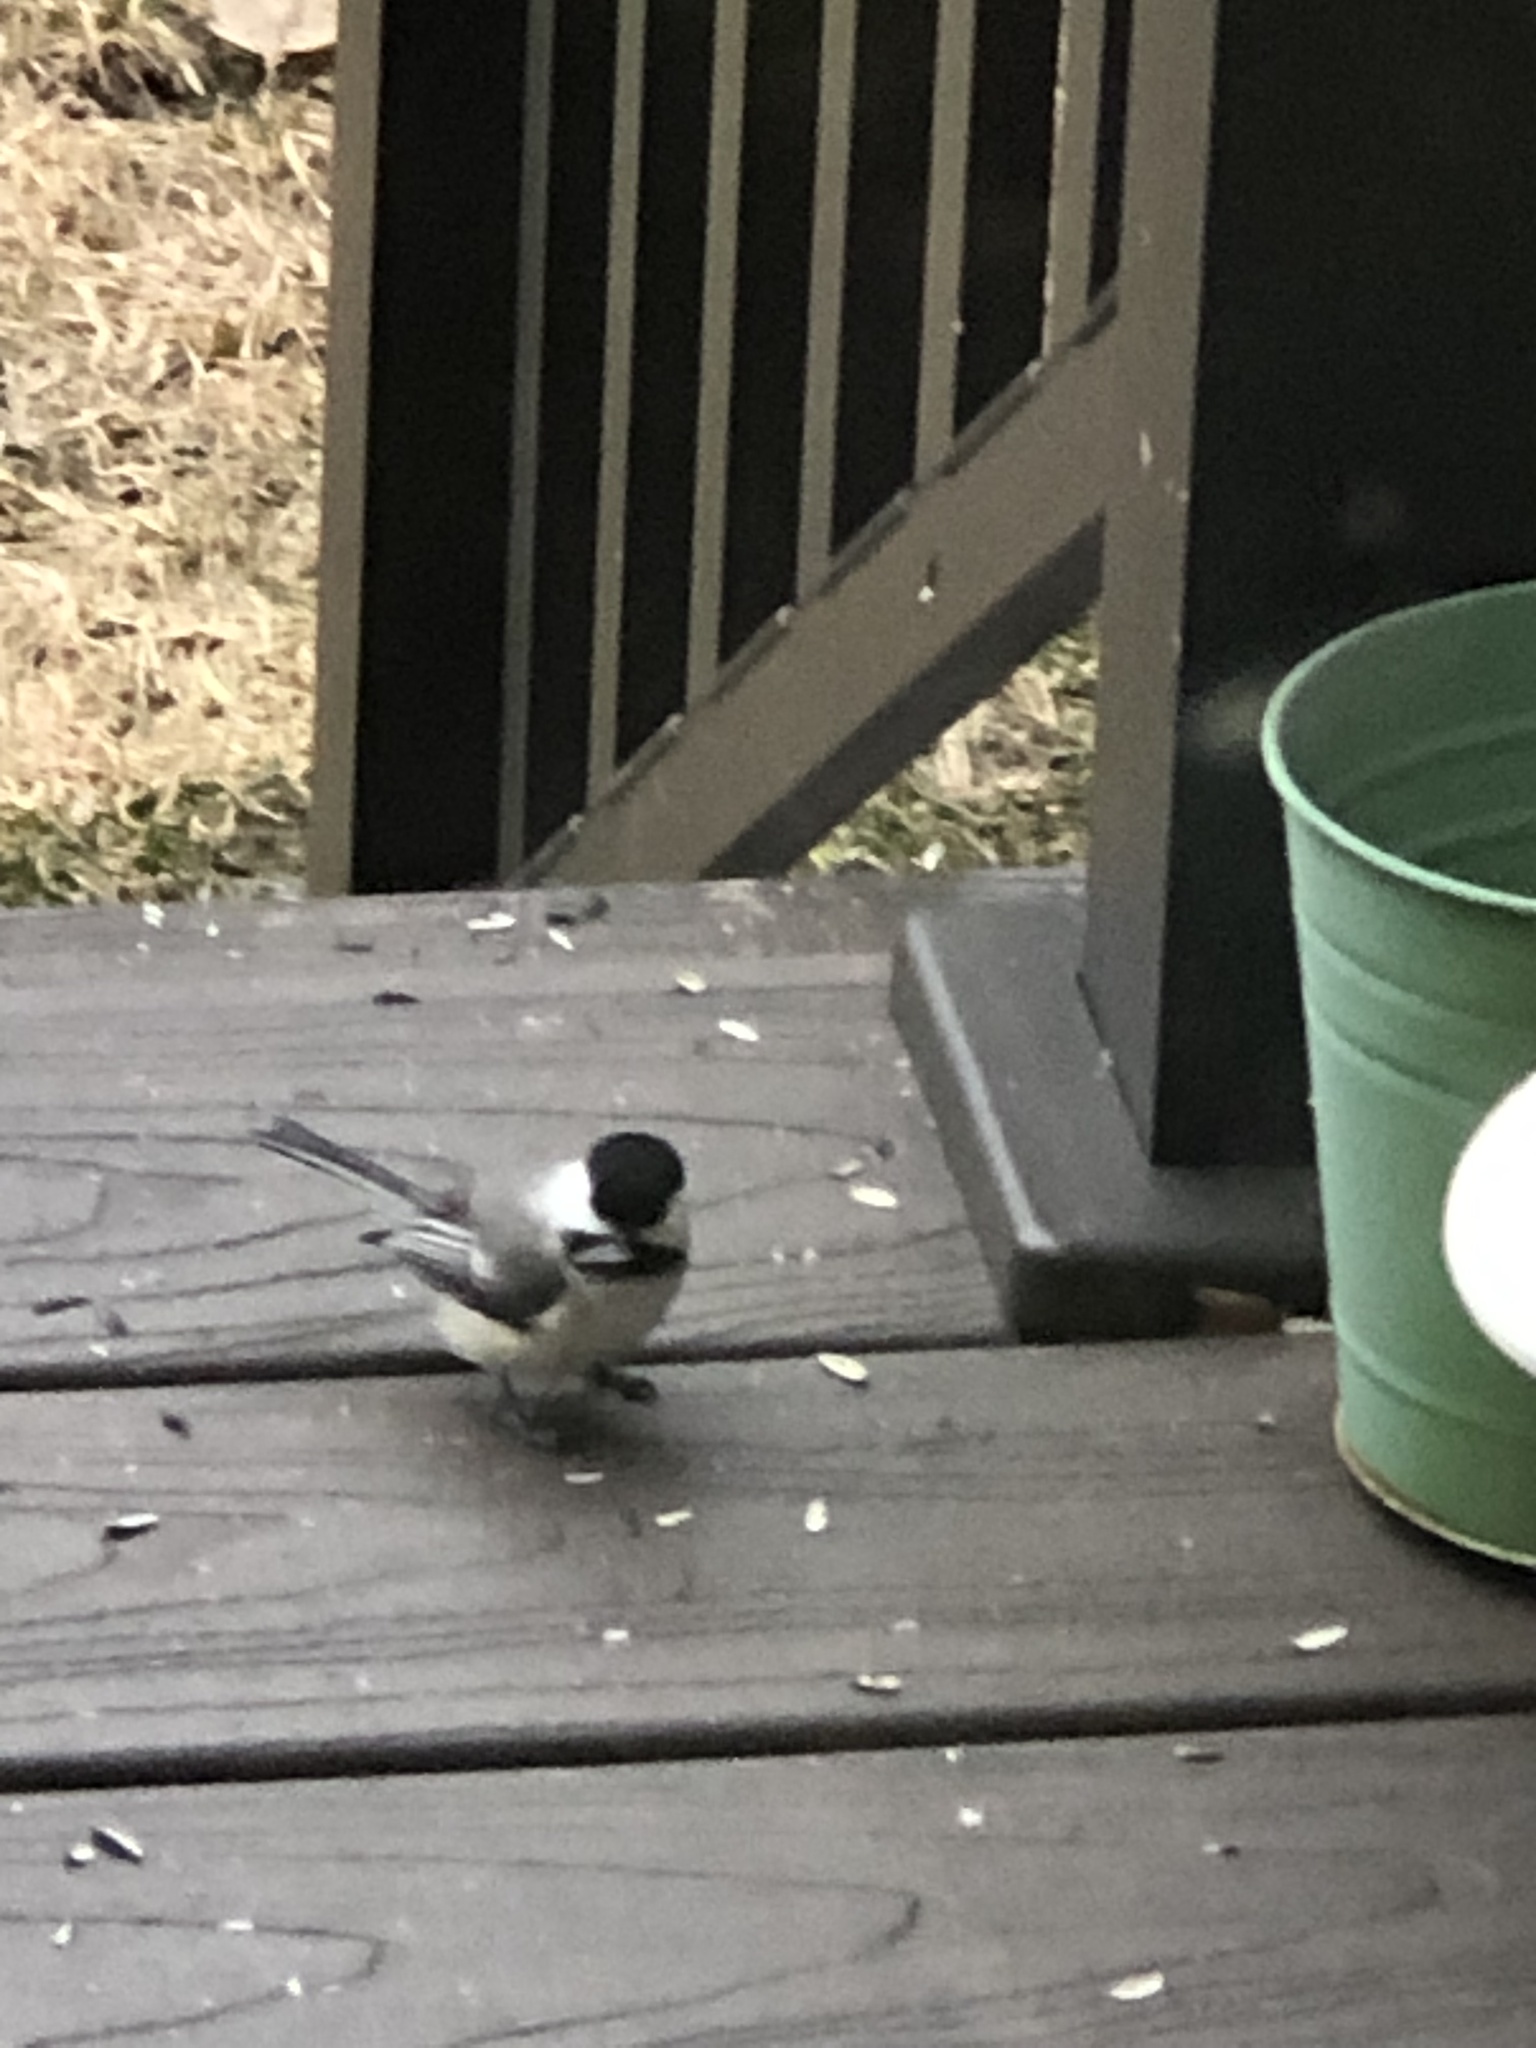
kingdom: Animalia
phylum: Chordata
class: Aves
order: Passeriformes
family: Paridae
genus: Poecile
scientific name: Poecile atricapillus
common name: Black-capped chickadee
